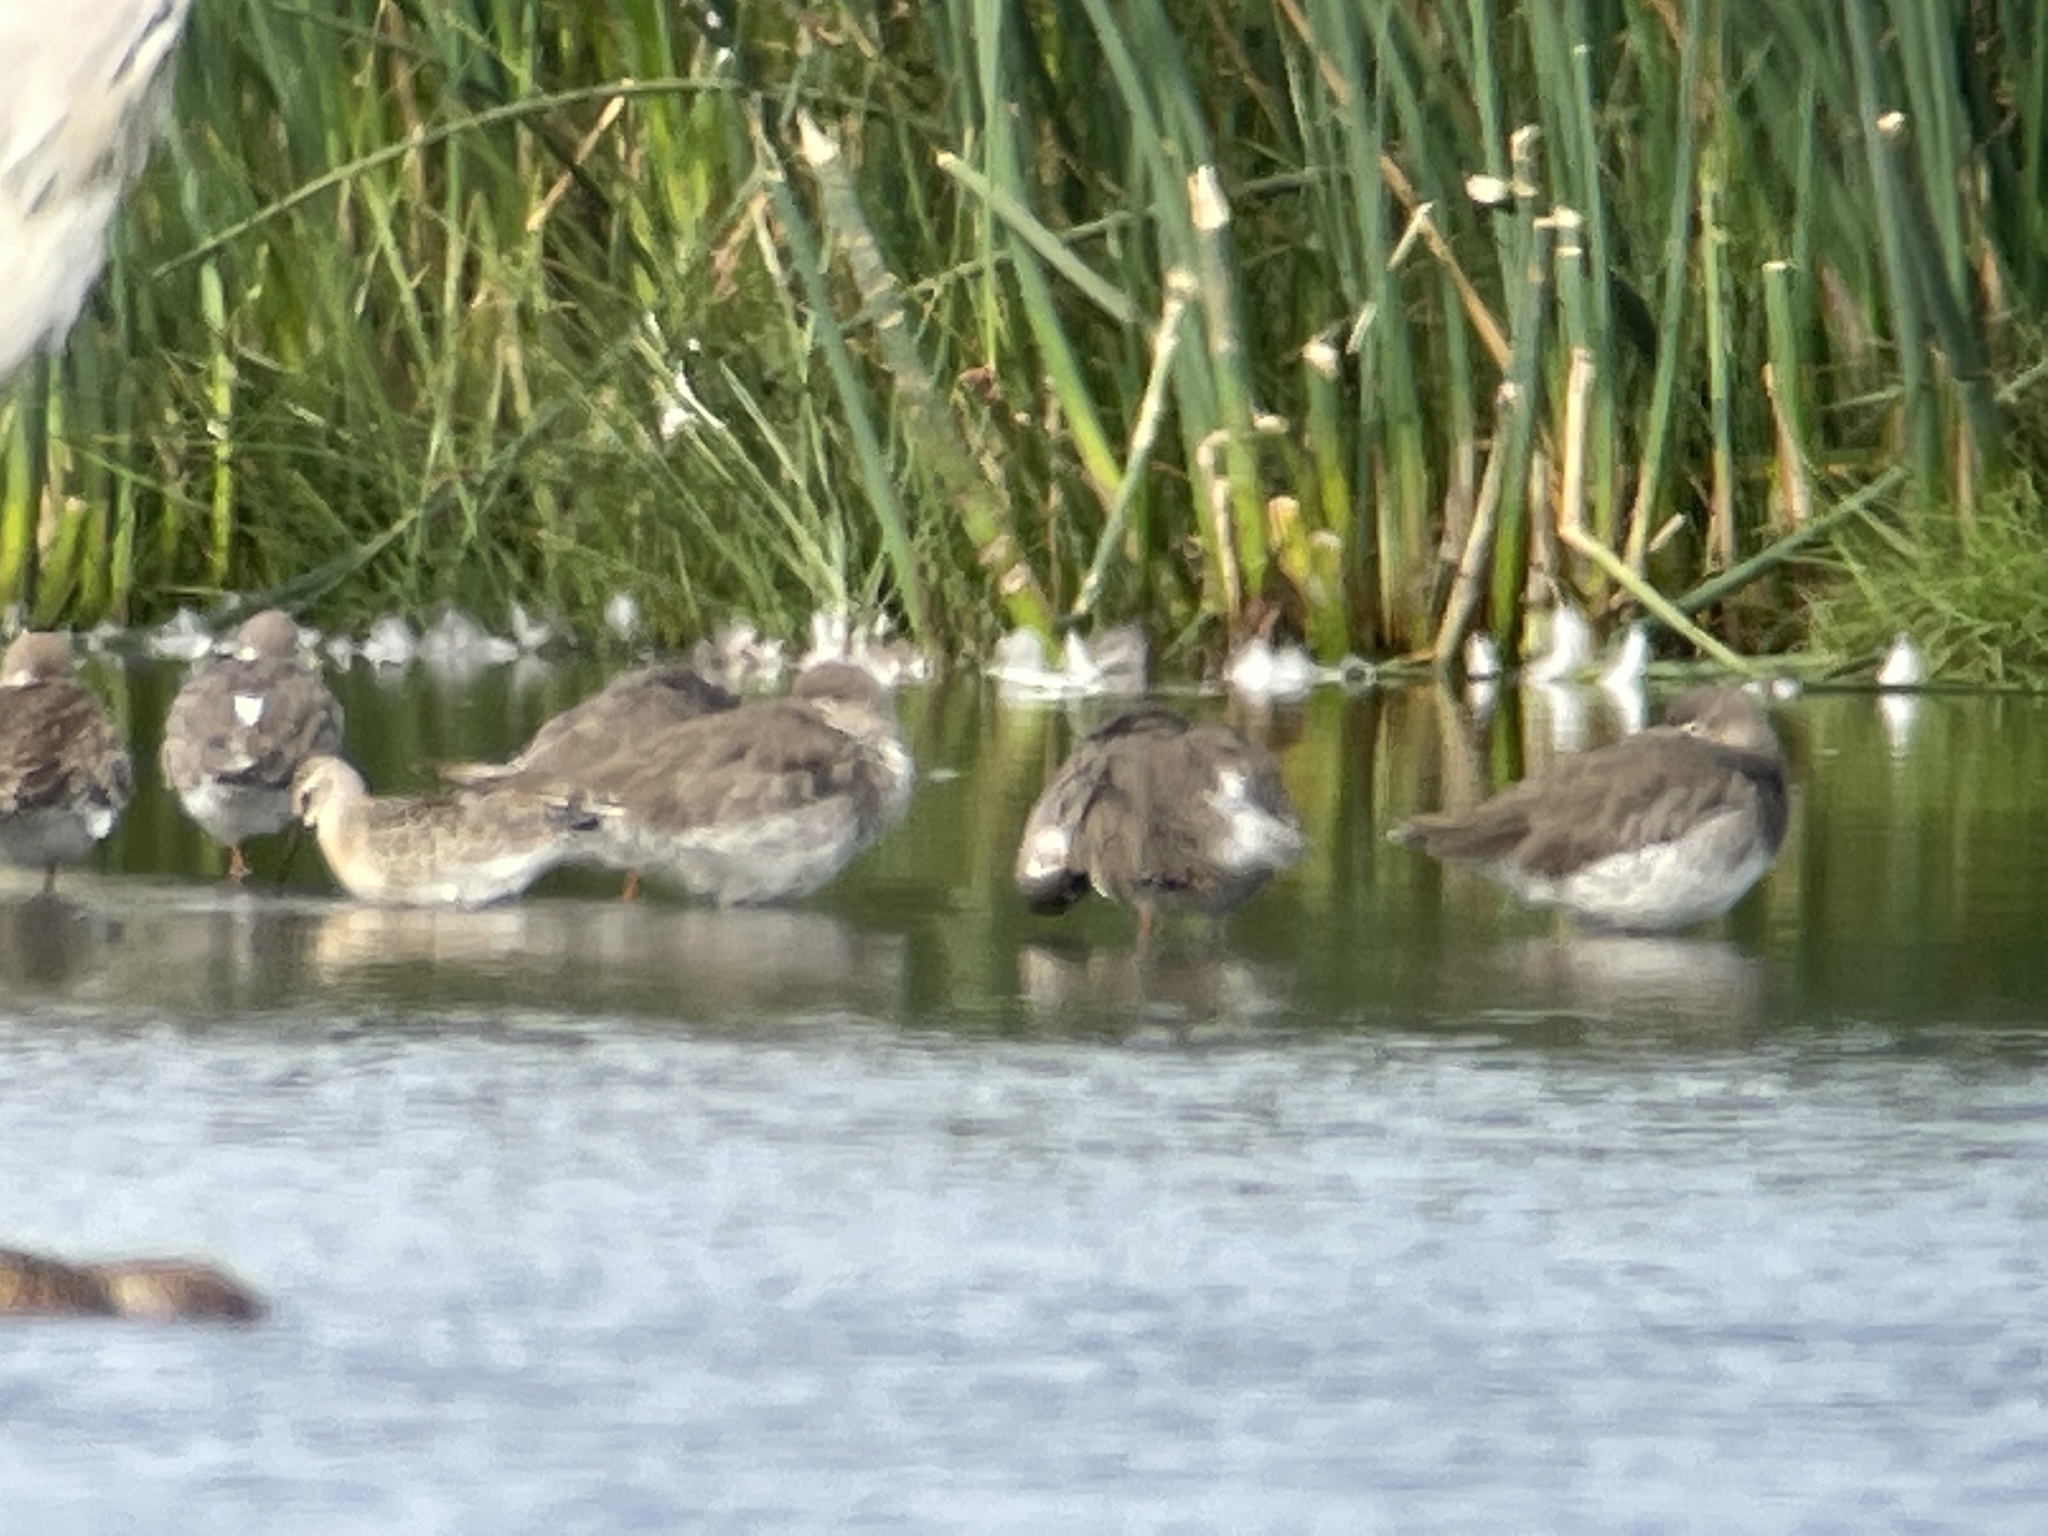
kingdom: Animalia
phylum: Chordata
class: Aves
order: Charadriiformes
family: Scolopacidae
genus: Calidris
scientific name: Calidris ferruginea
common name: Curlew sandpiper
